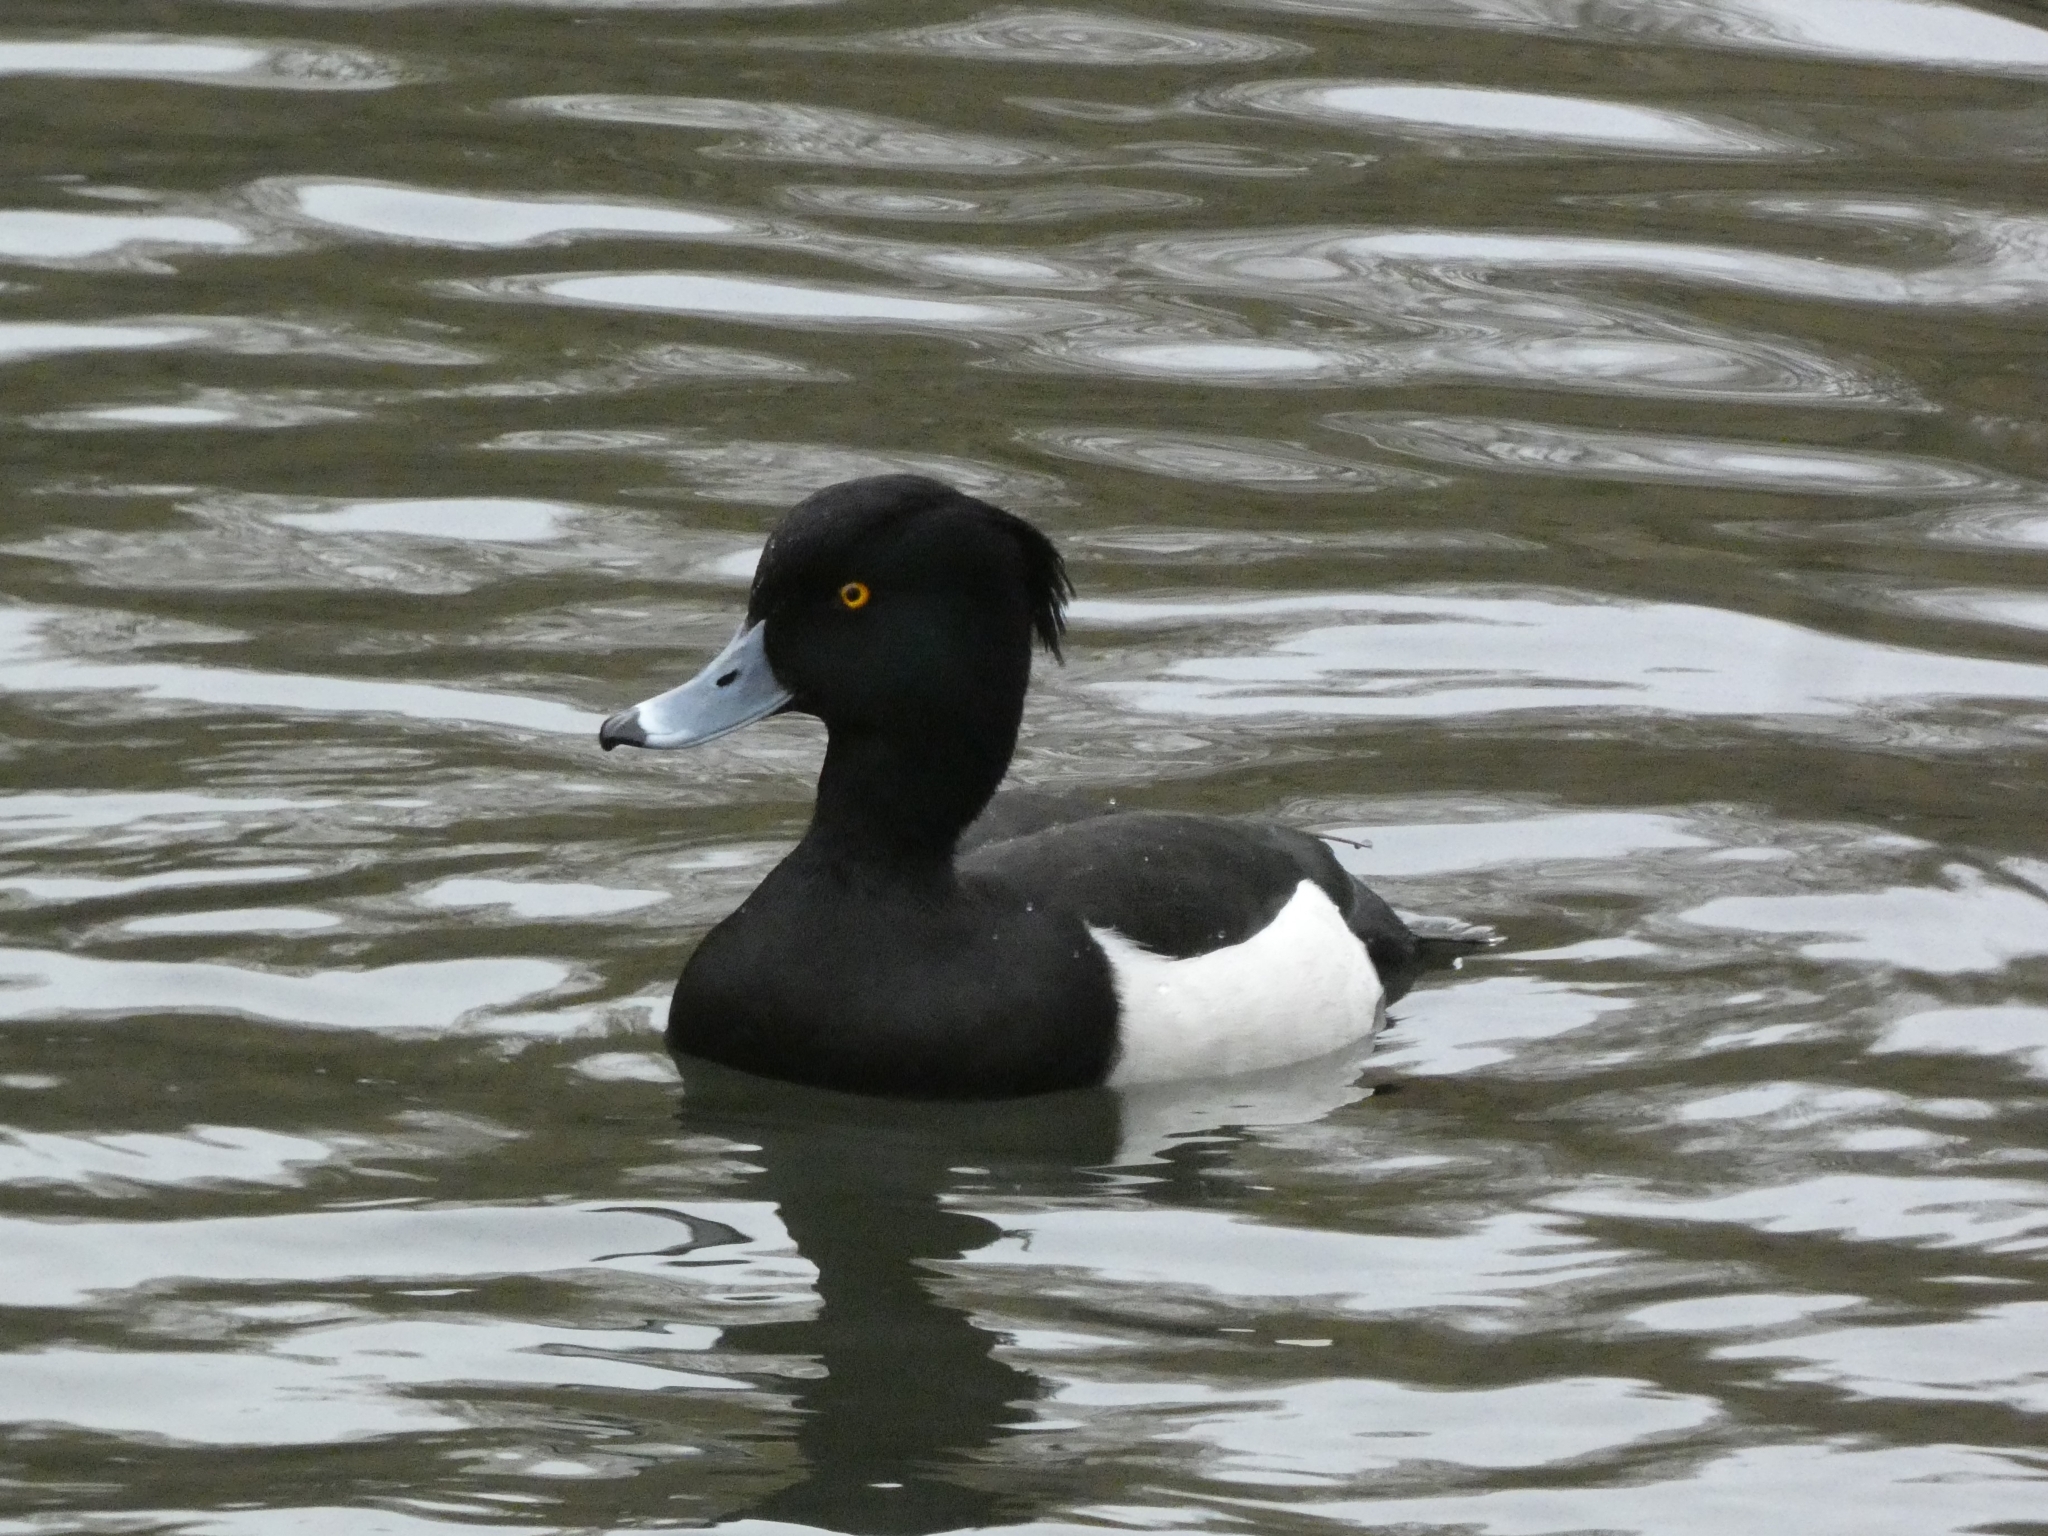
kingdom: Animalia
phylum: Chordata
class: Aves
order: Anseriformes
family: Anatidae
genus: Aythya
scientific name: Aythya fuligula
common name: Tufted duck
